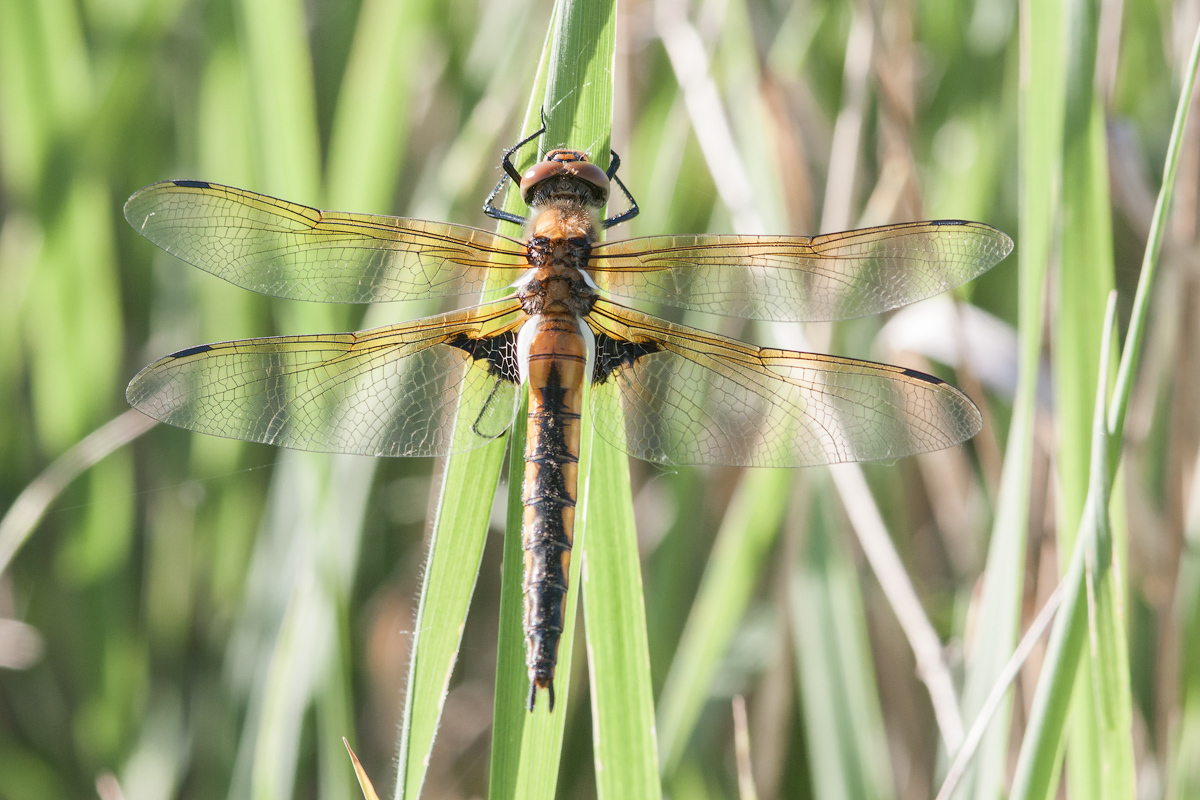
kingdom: Animalia
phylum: Arthropoda
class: Insecta
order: Odonata
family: Corduliidae
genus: Epitheca
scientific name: Epitheca bimaculata
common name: Eurasian baskettail
